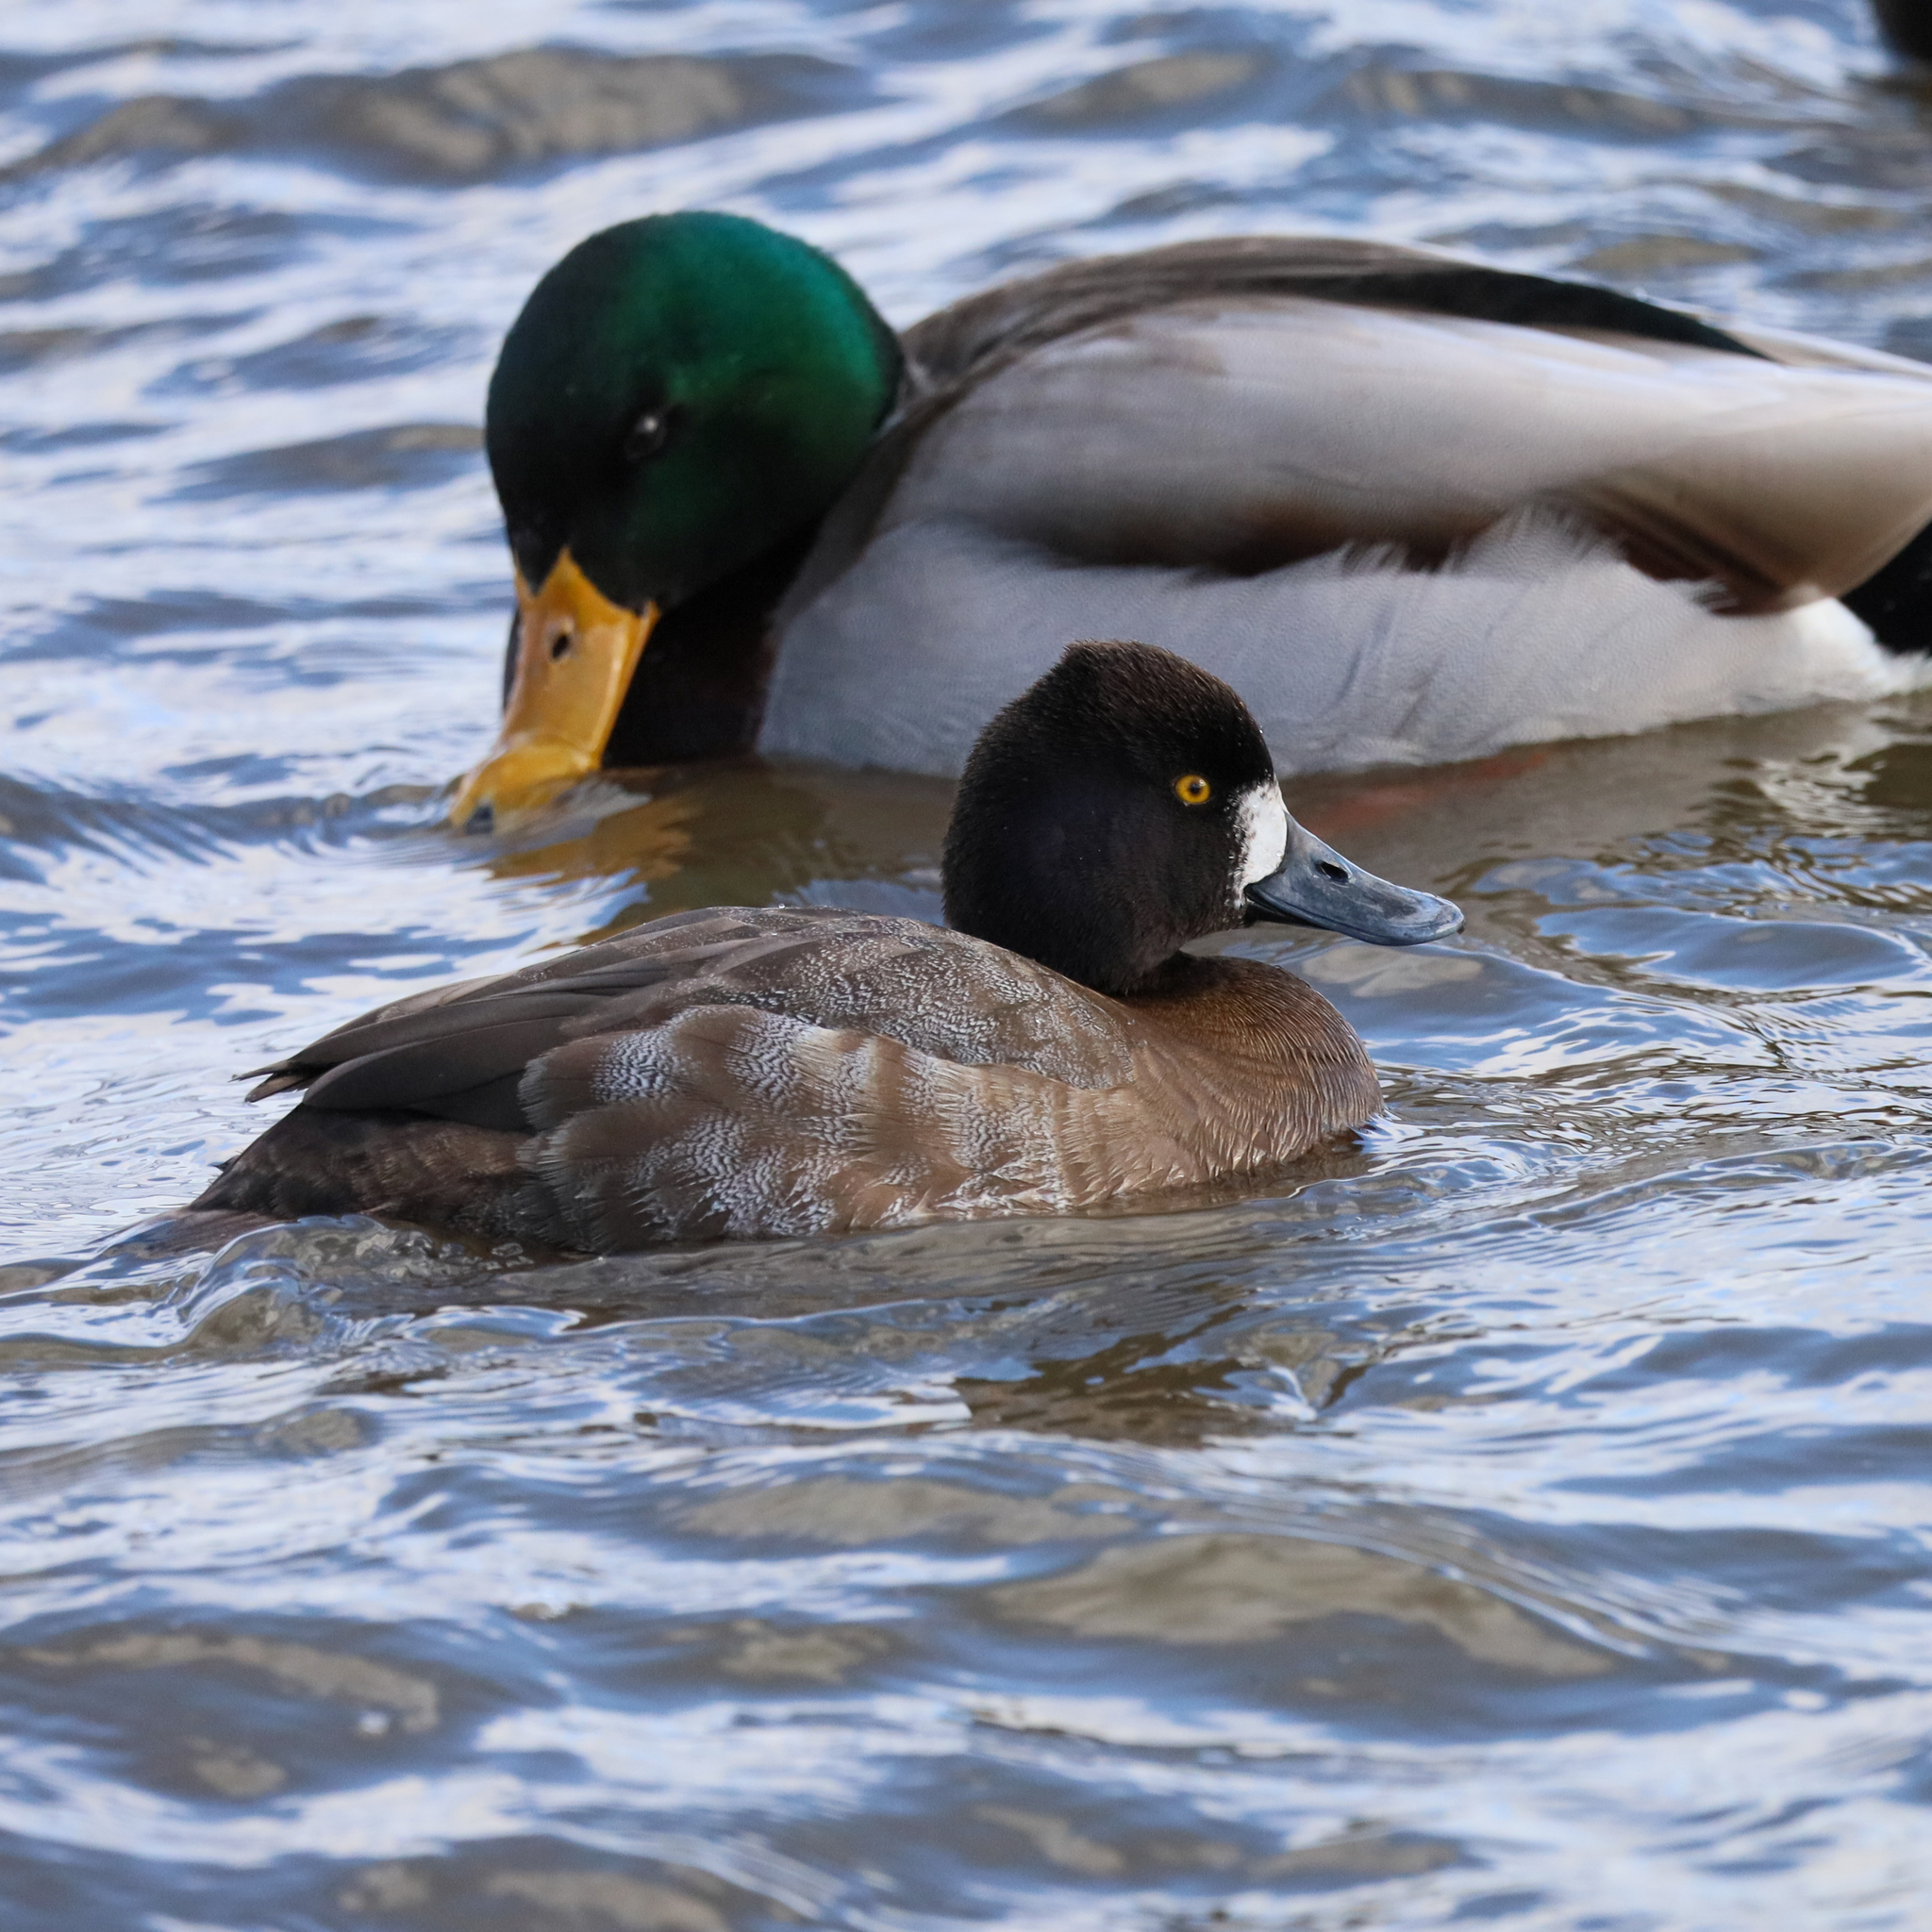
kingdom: Animalia
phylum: Chordata
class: Aves
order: Anseriformes
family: Anatidae
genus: Aythya
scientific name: Aythya affinis
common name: Lesser scaup
